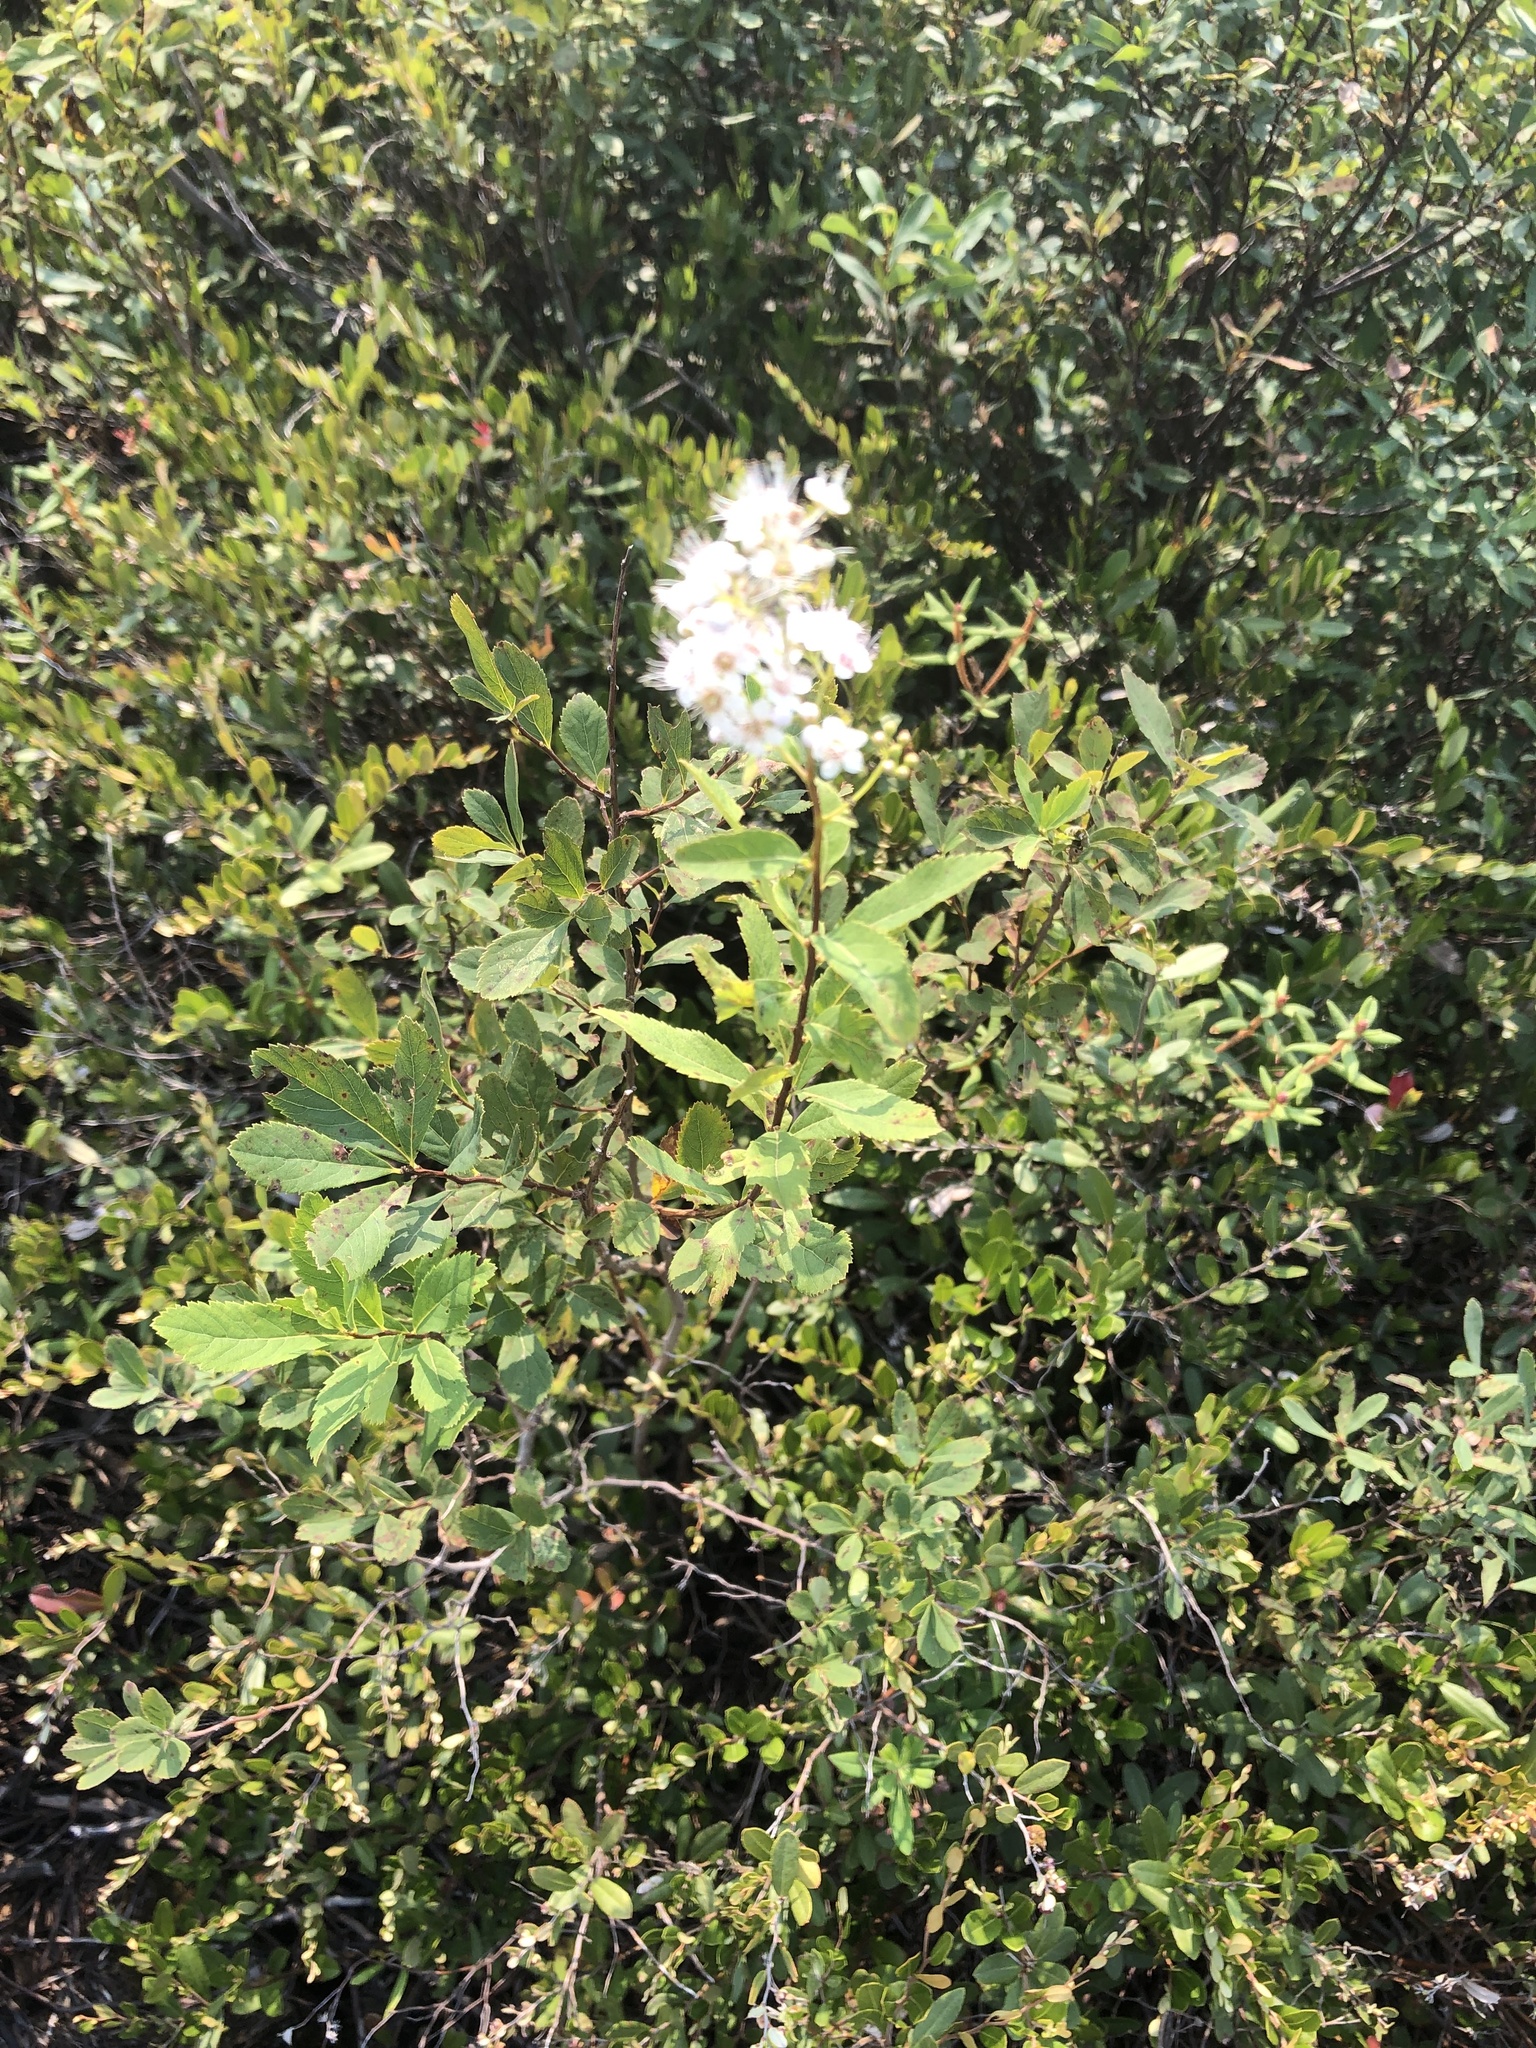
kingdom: Plantae
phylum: Tracheophyta
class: Magnoliopsida
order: Rosales
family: Rosaceae
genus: Spiraea
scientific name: Spiraea alba
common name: Pale bridewort
